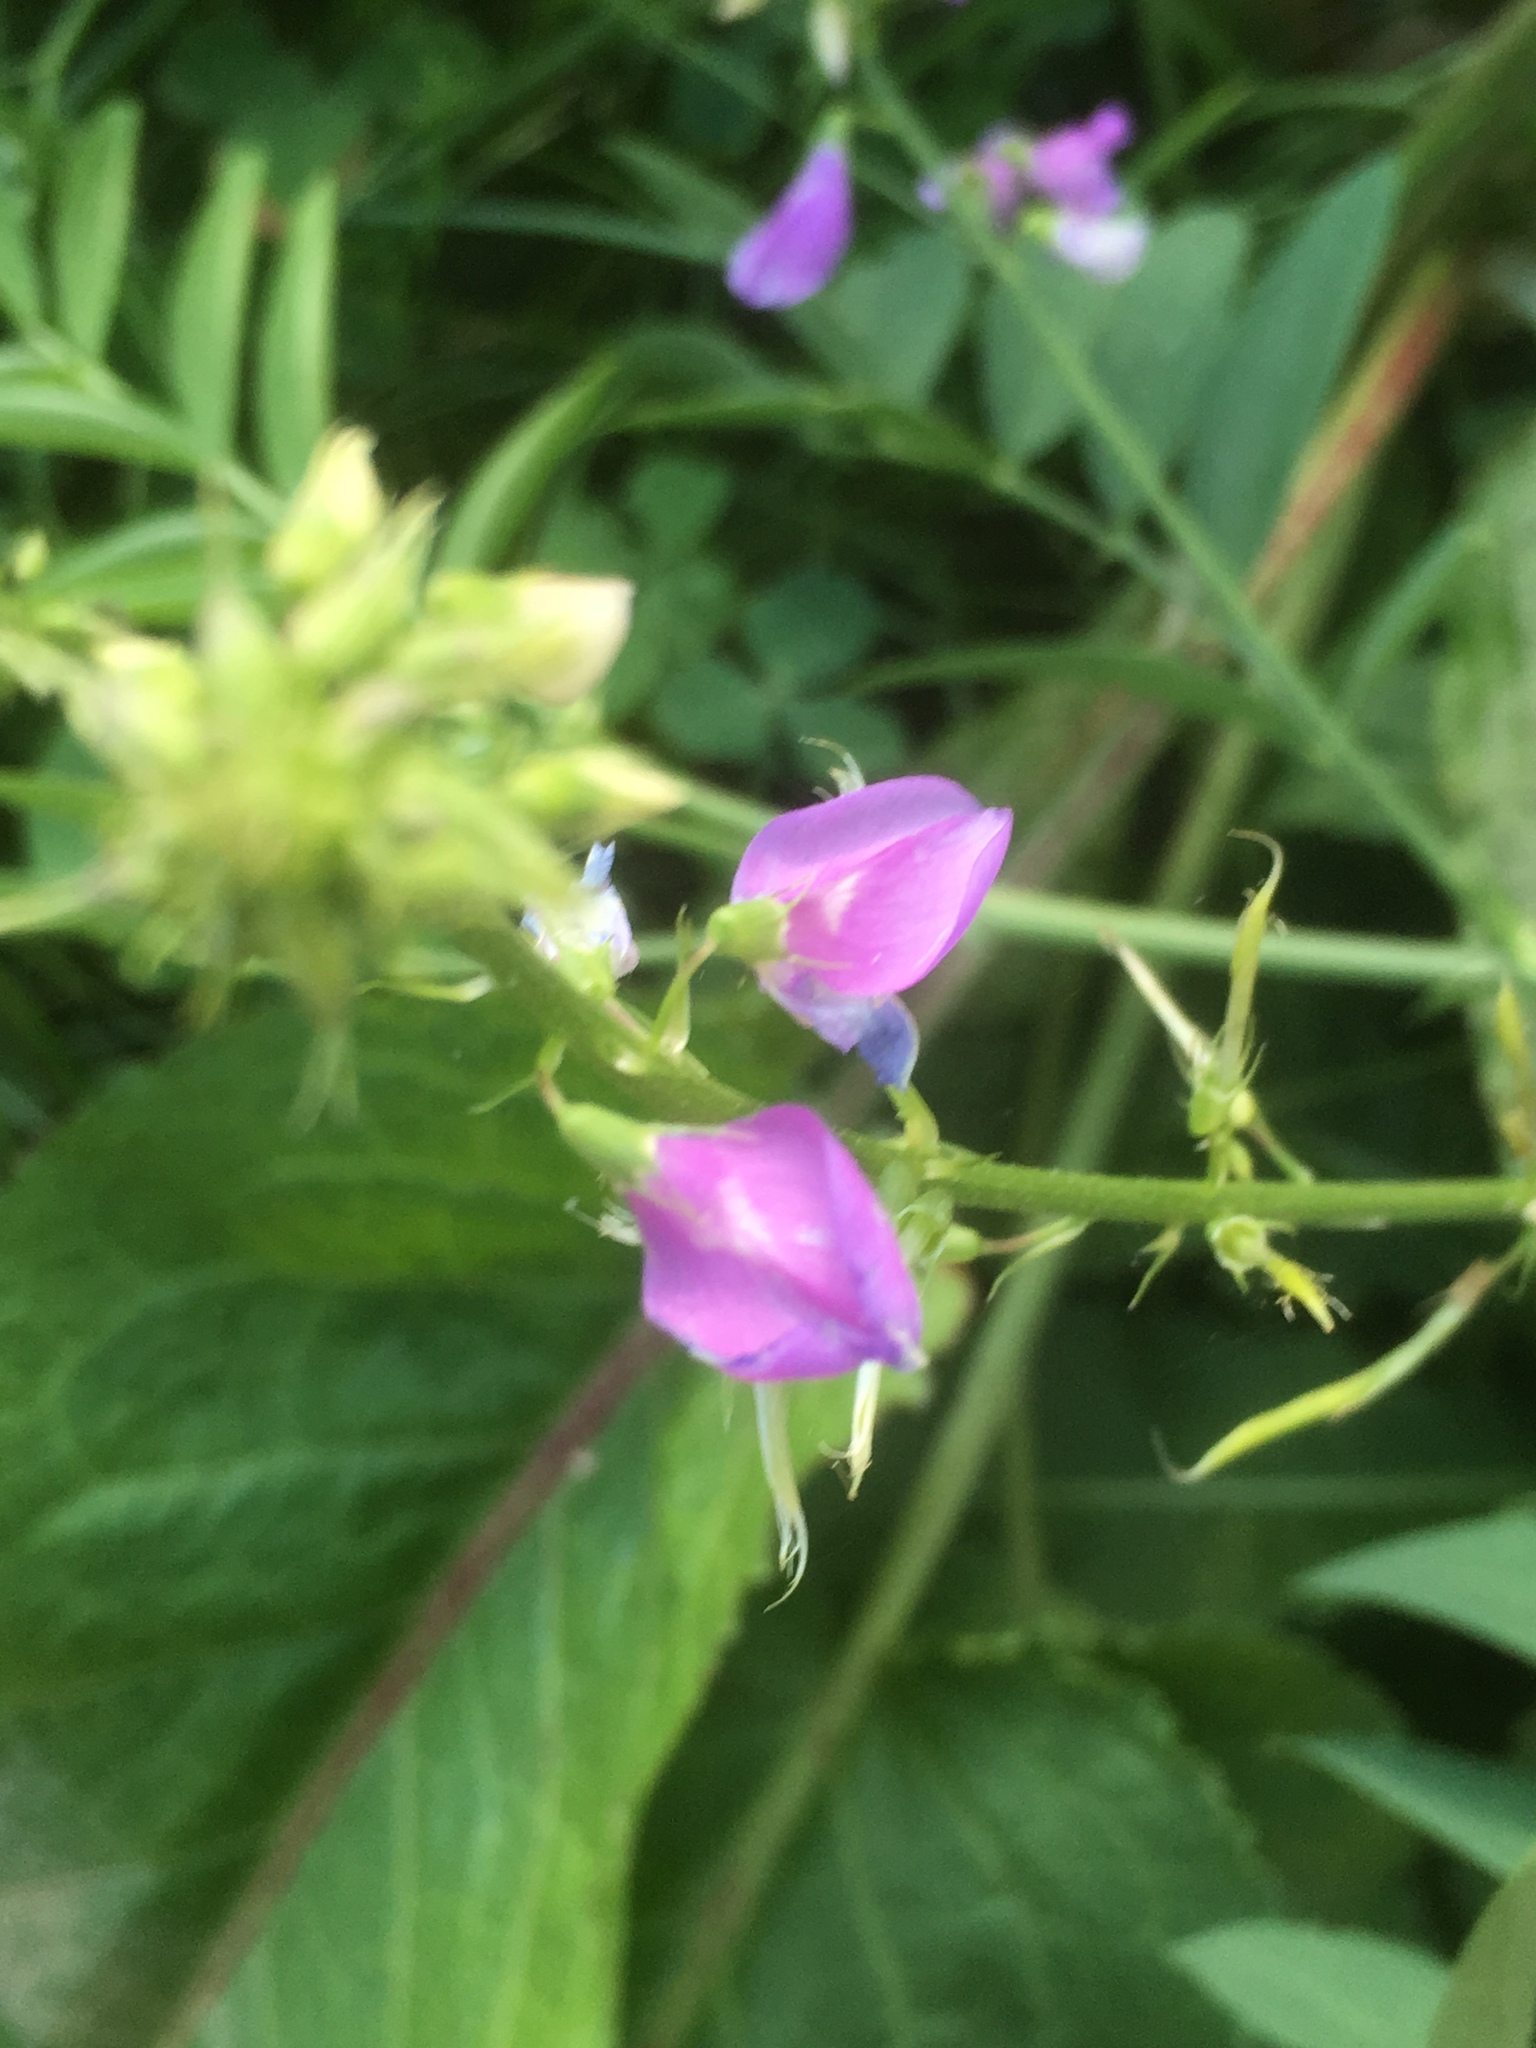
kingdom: Plantae
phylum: Tracheophyta
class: Magnoliopsida
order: Fabales
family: Fabaceae
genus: Galega
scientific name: Galega officinalis
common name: Goat's-rue
